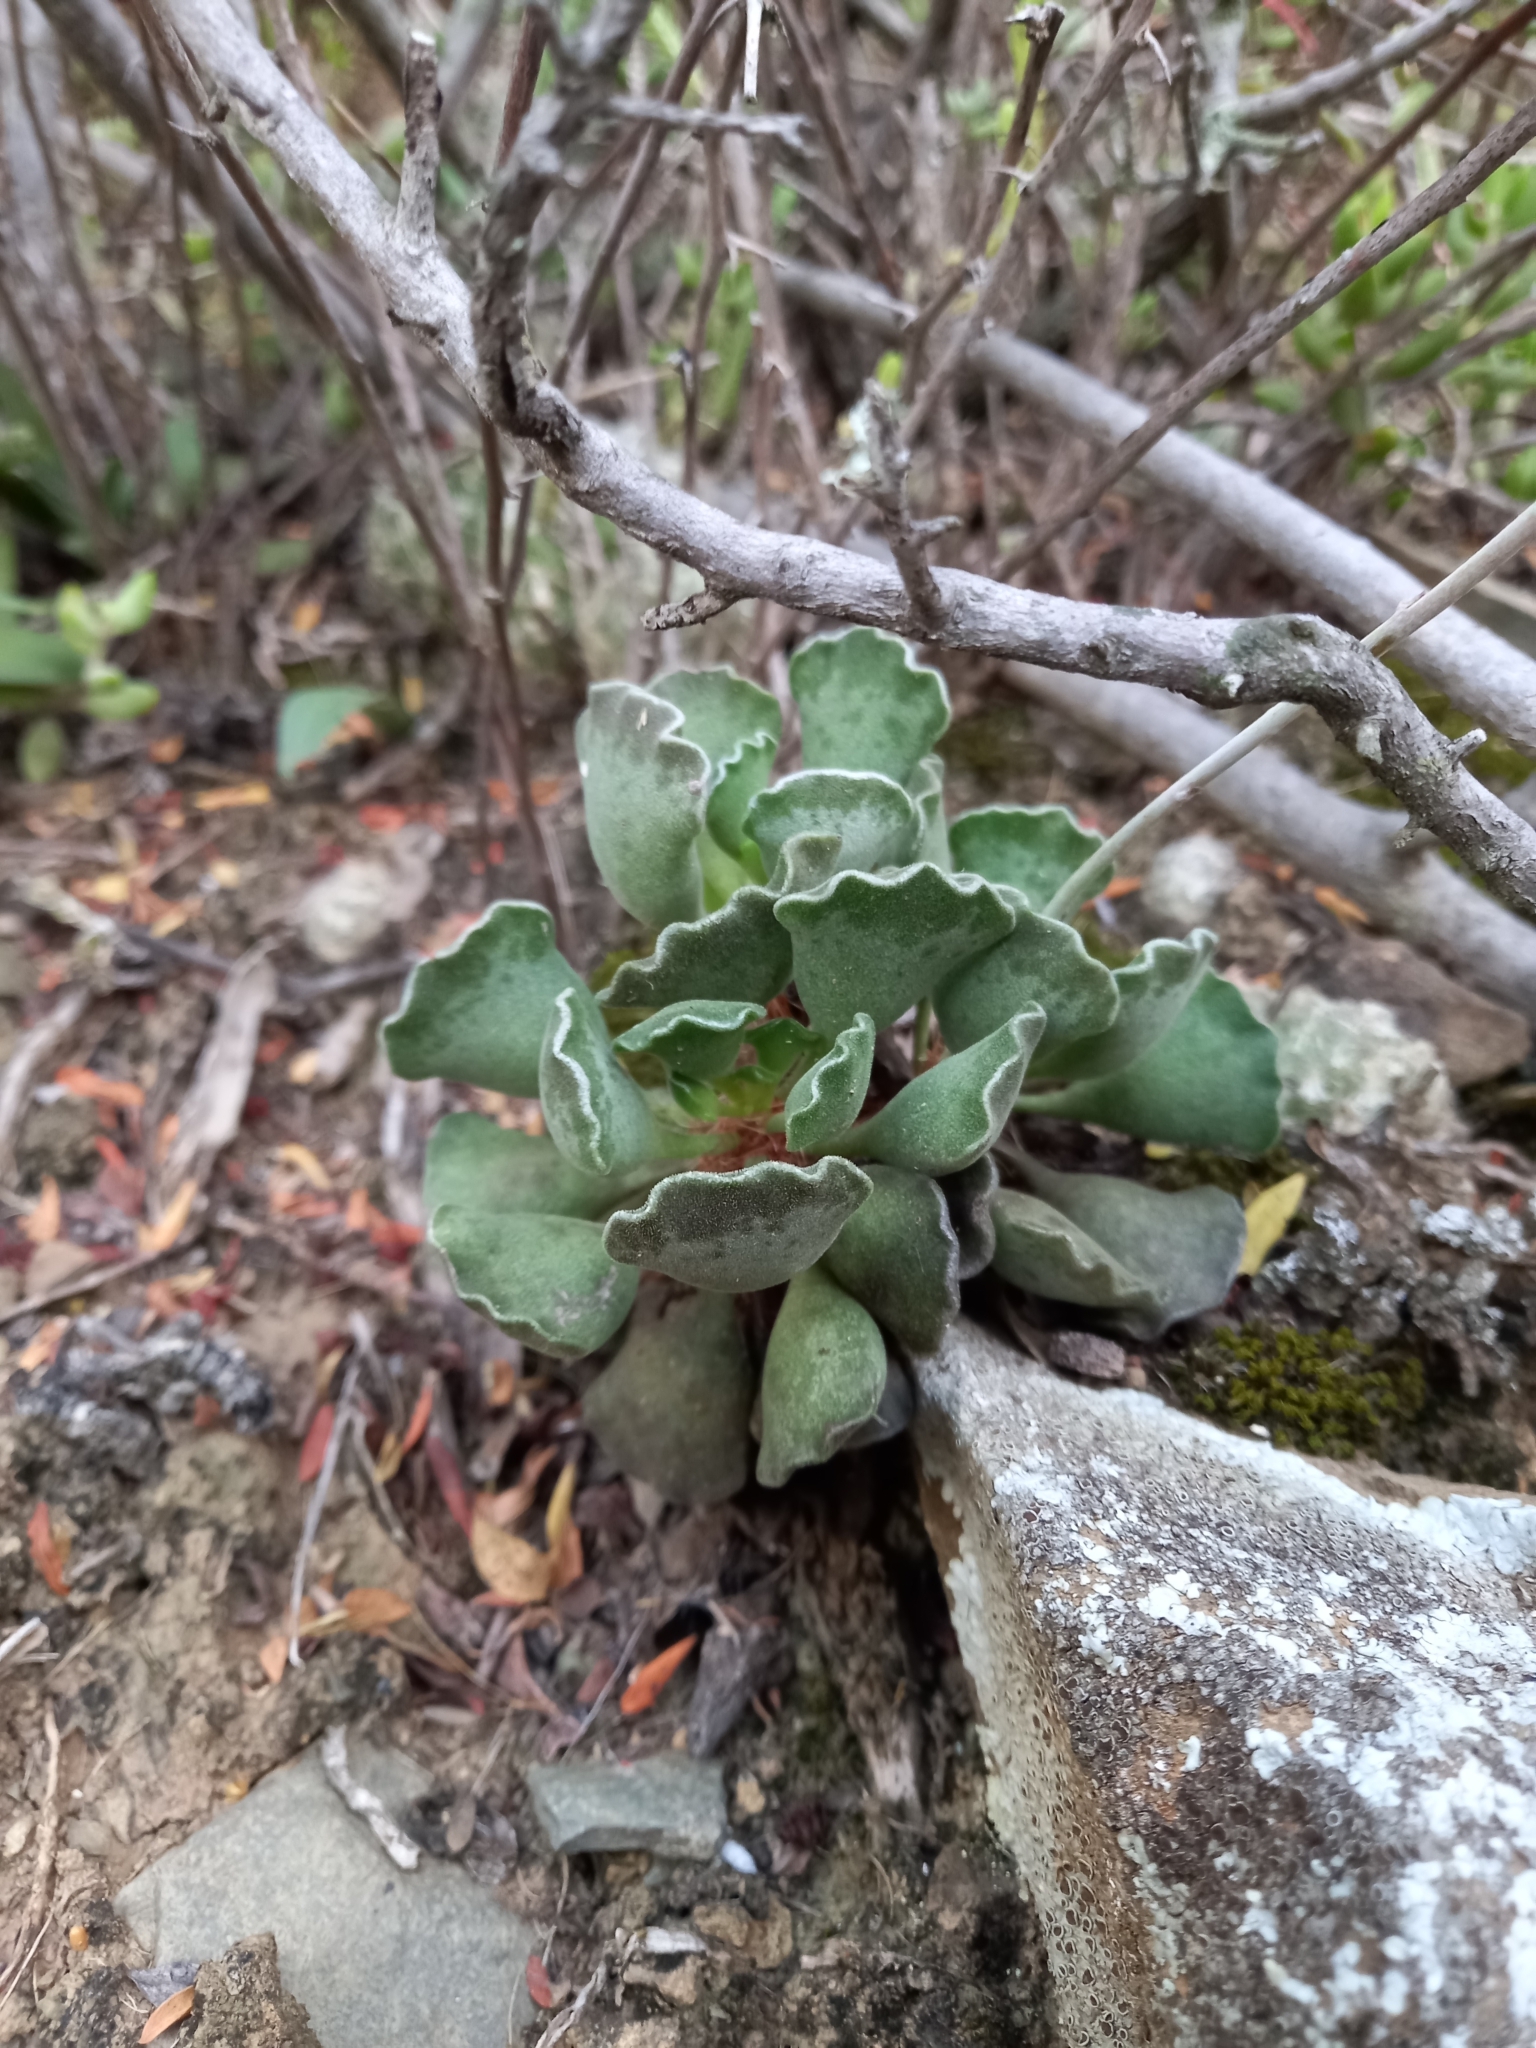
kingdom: Plantae
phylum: Tracheophyta
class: Magnoliopsida
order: Saxifragales
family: Crassulaceae
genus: Adromischus
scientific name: Adromischus cristatus
